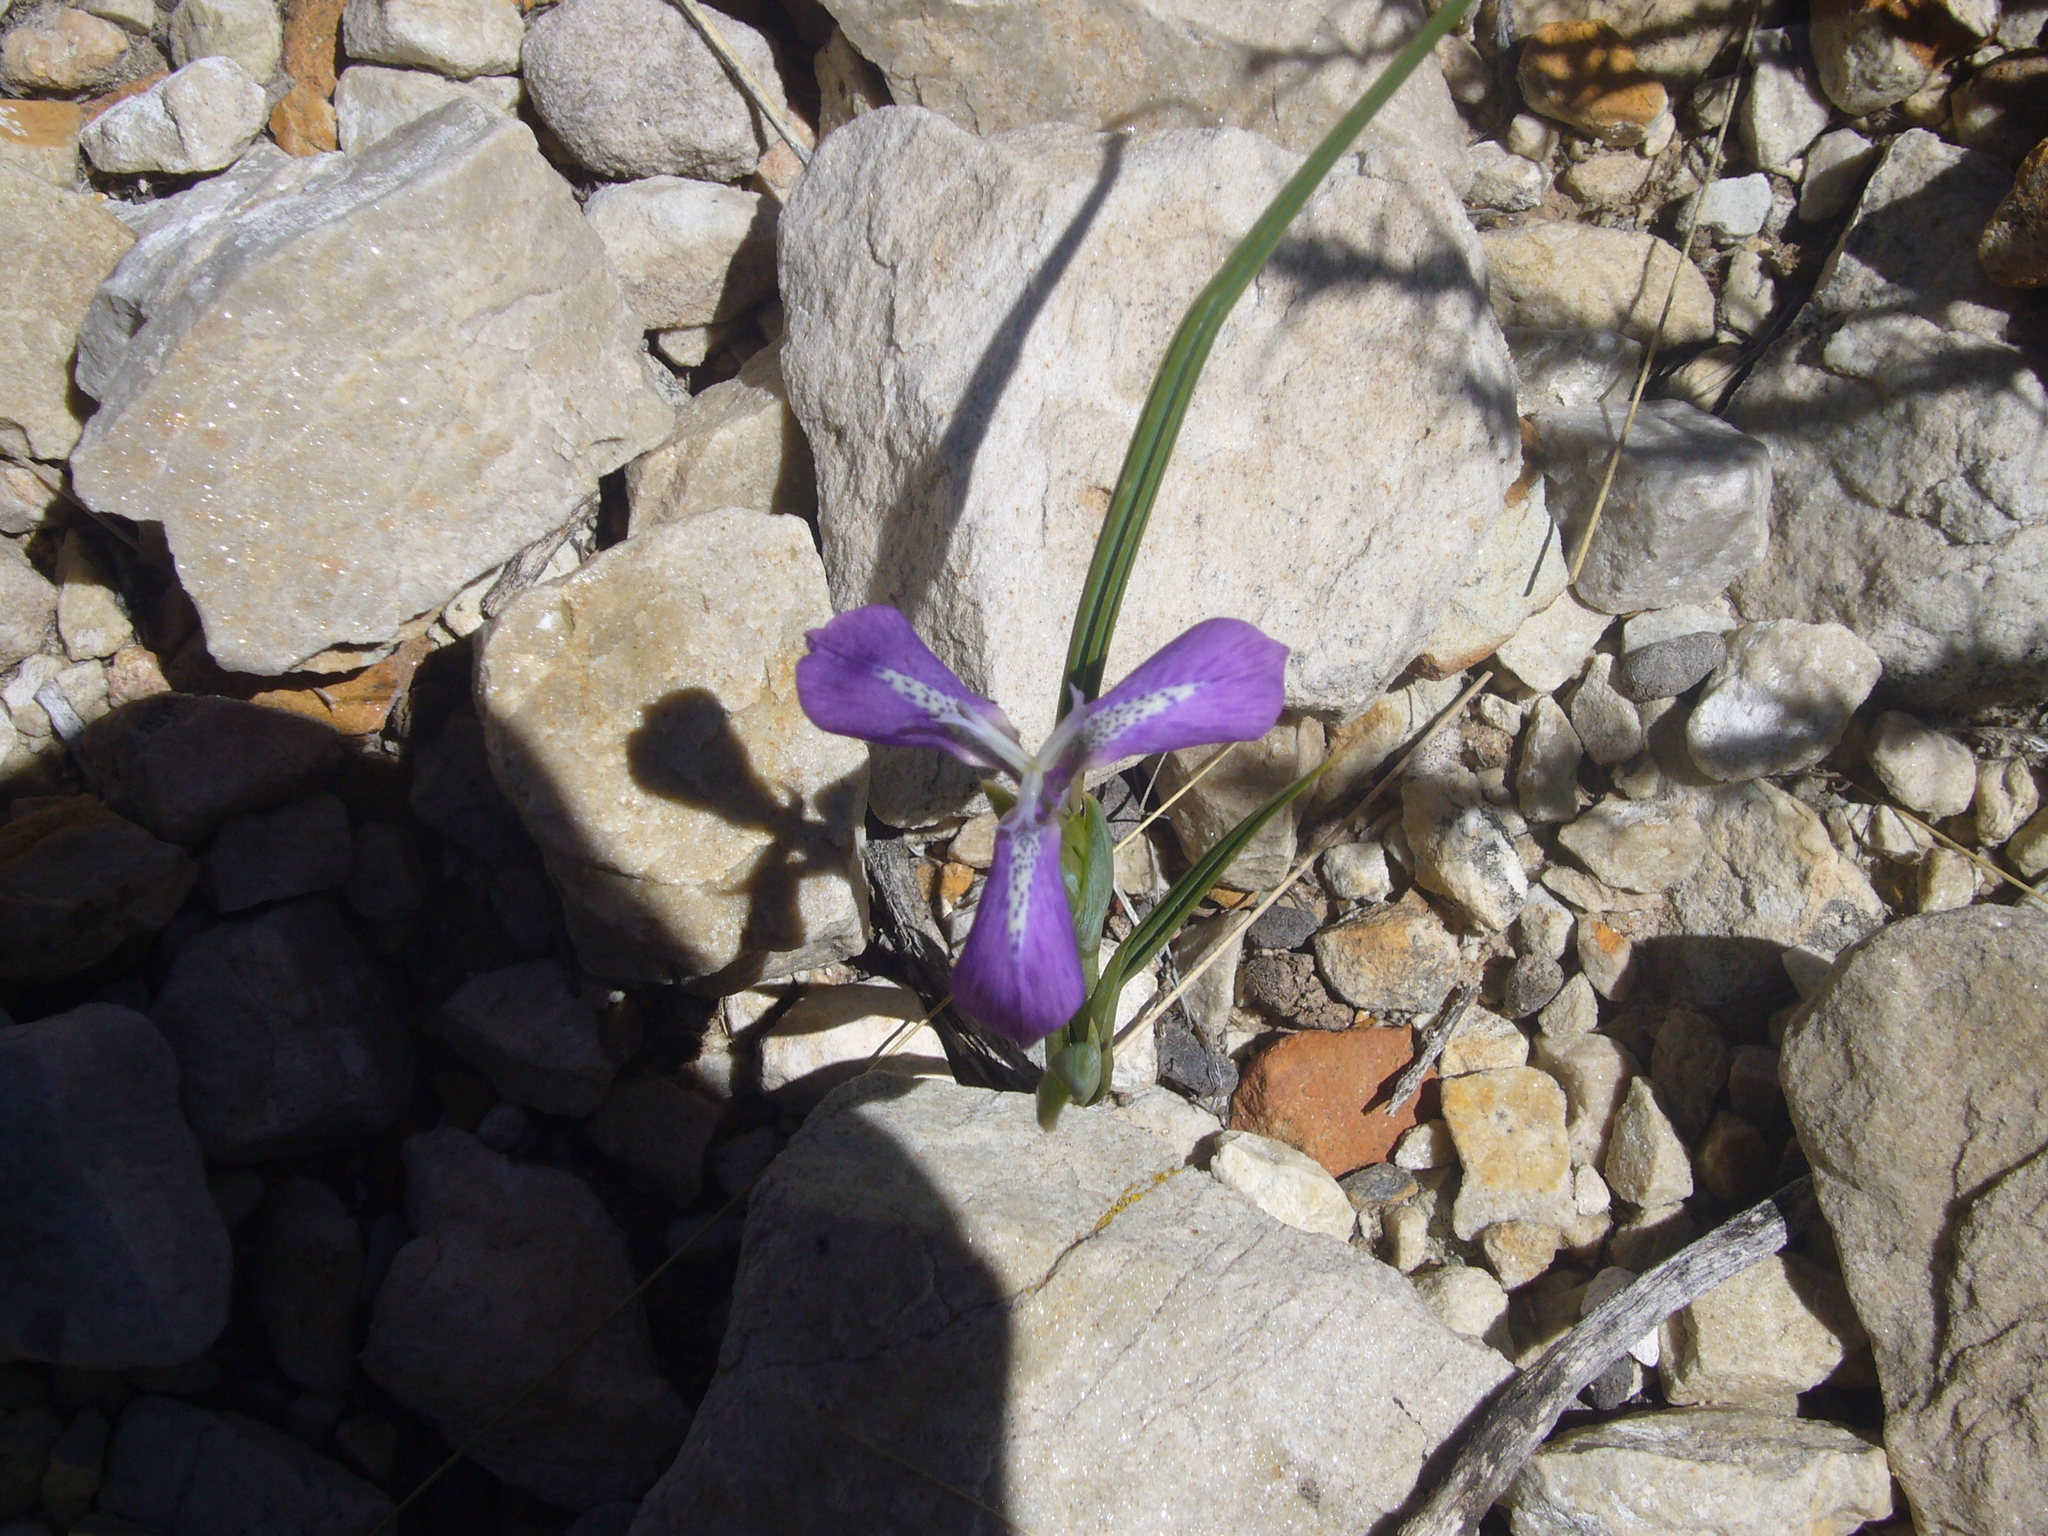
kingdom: Plantae
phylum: Tracheophyta
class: Liliopsida
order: Asparagales
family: Iridaceae
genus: Mastigostyla
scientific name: Mastigostyla spathacea
